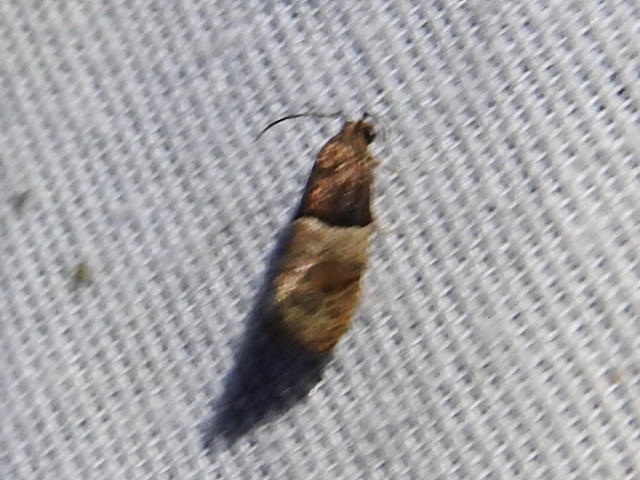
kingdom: Animalia
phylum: Arthropoda
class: Insecta
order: Lepidoptera
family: Tortricidae
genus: Larisa
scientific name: Larisa subsolana
